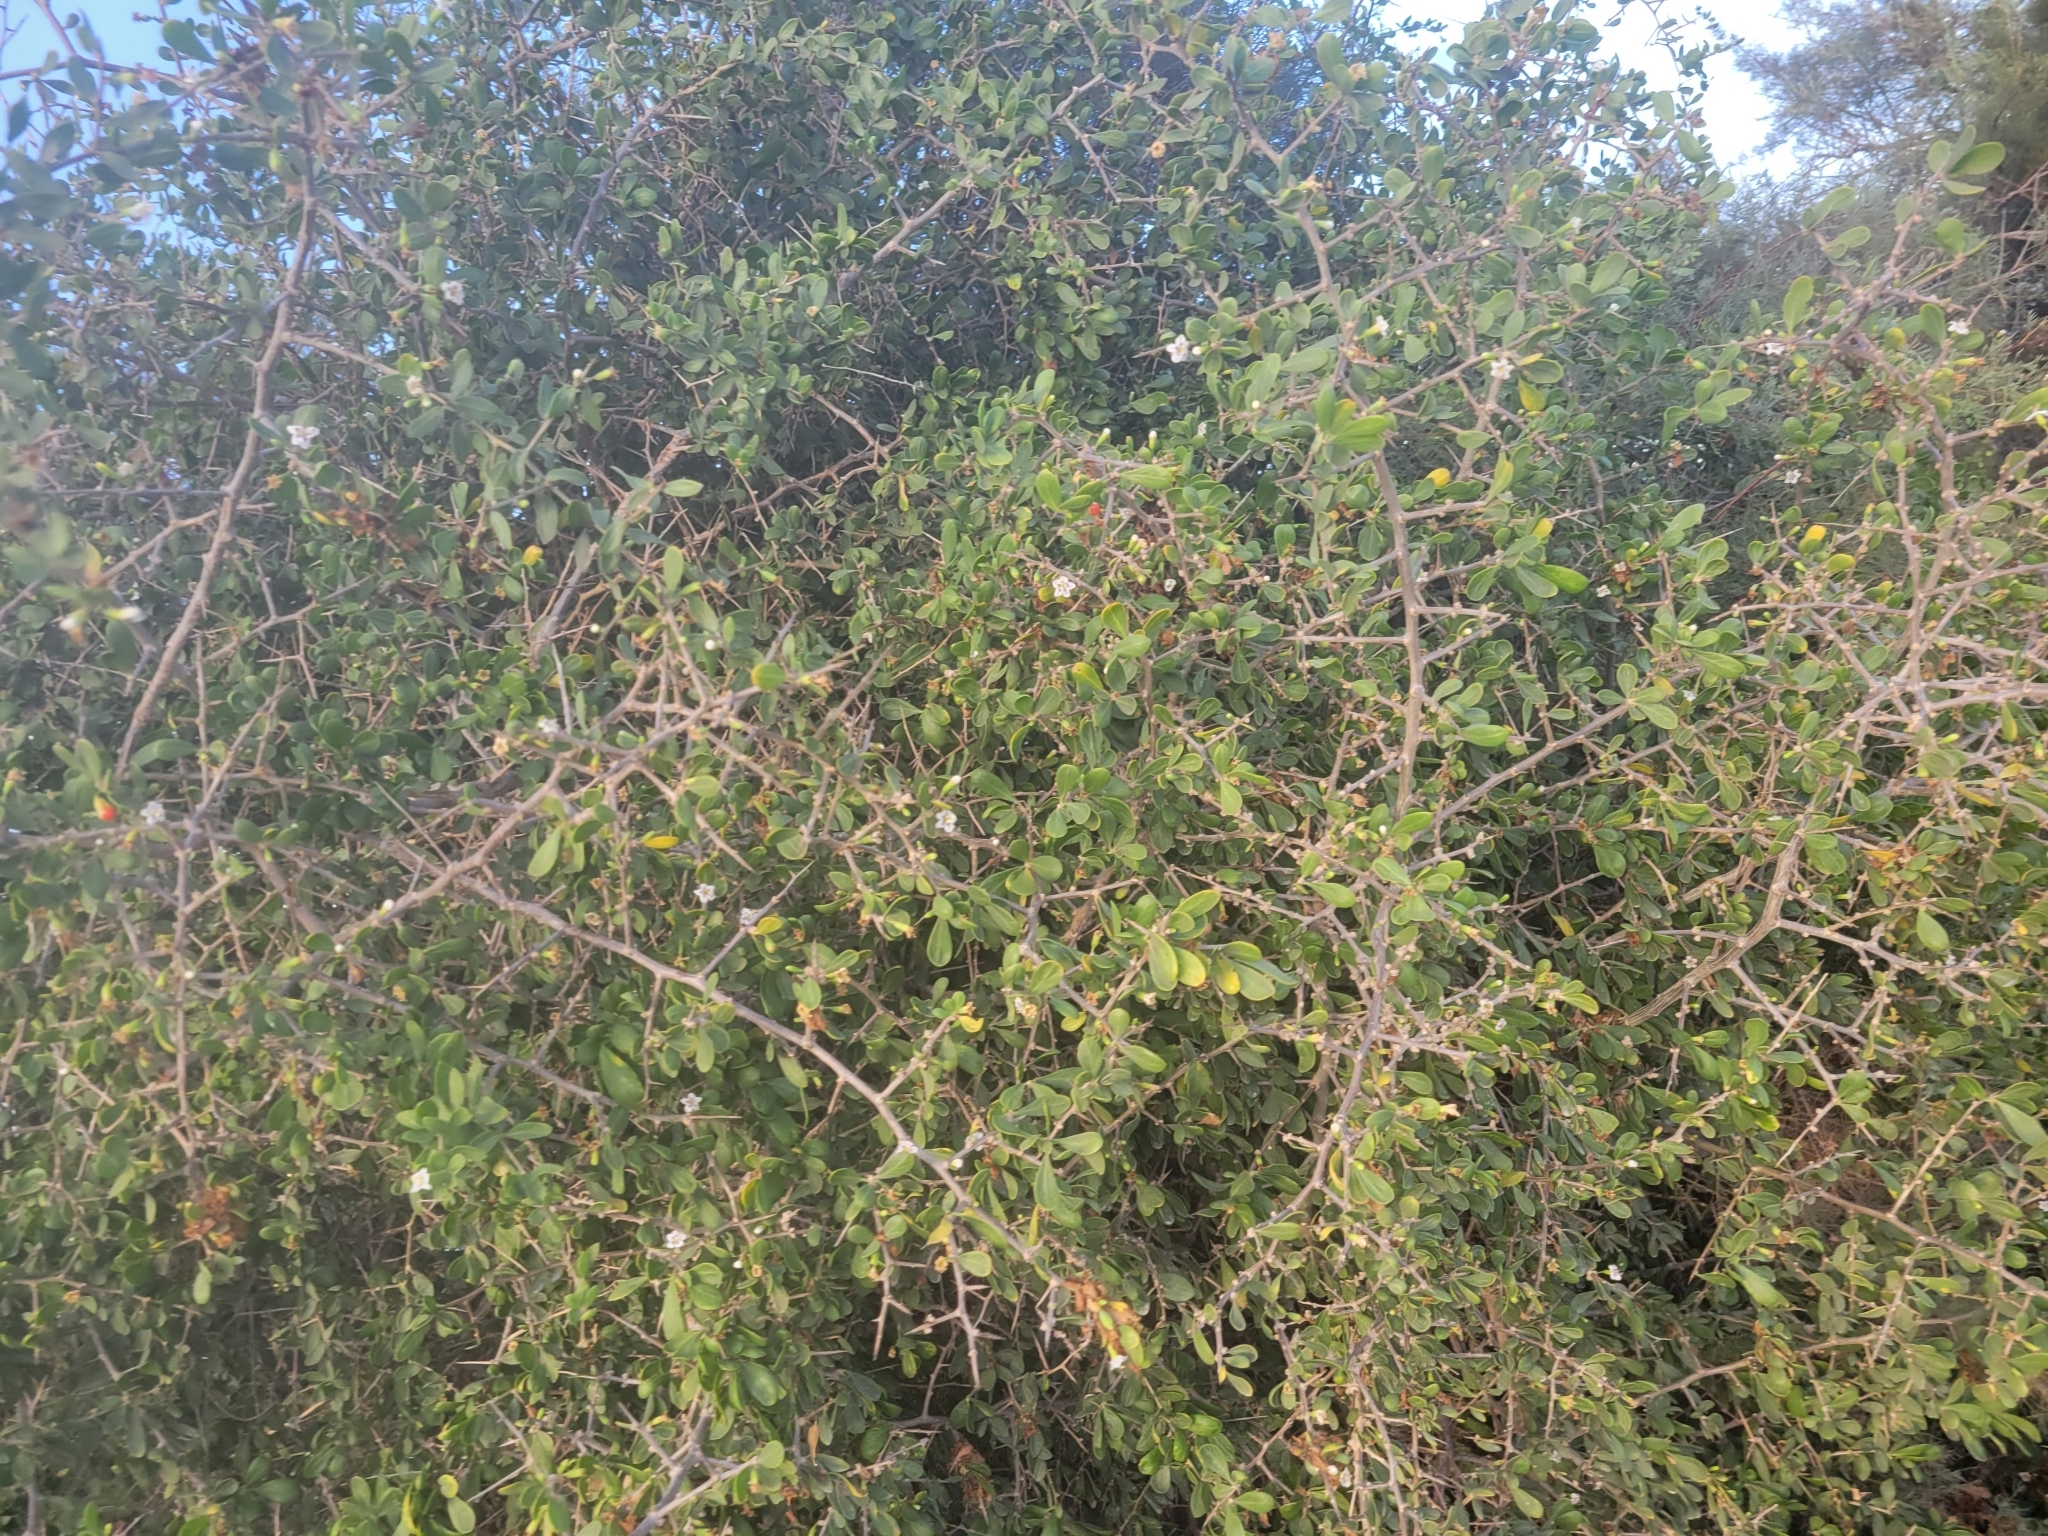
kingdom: Plantae
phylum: Tracheophyta
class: Magnoliopsida
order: Solanales
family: Solanaceae
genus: Lycium
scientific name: Lycium ferocissimum
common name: African boxthorn
